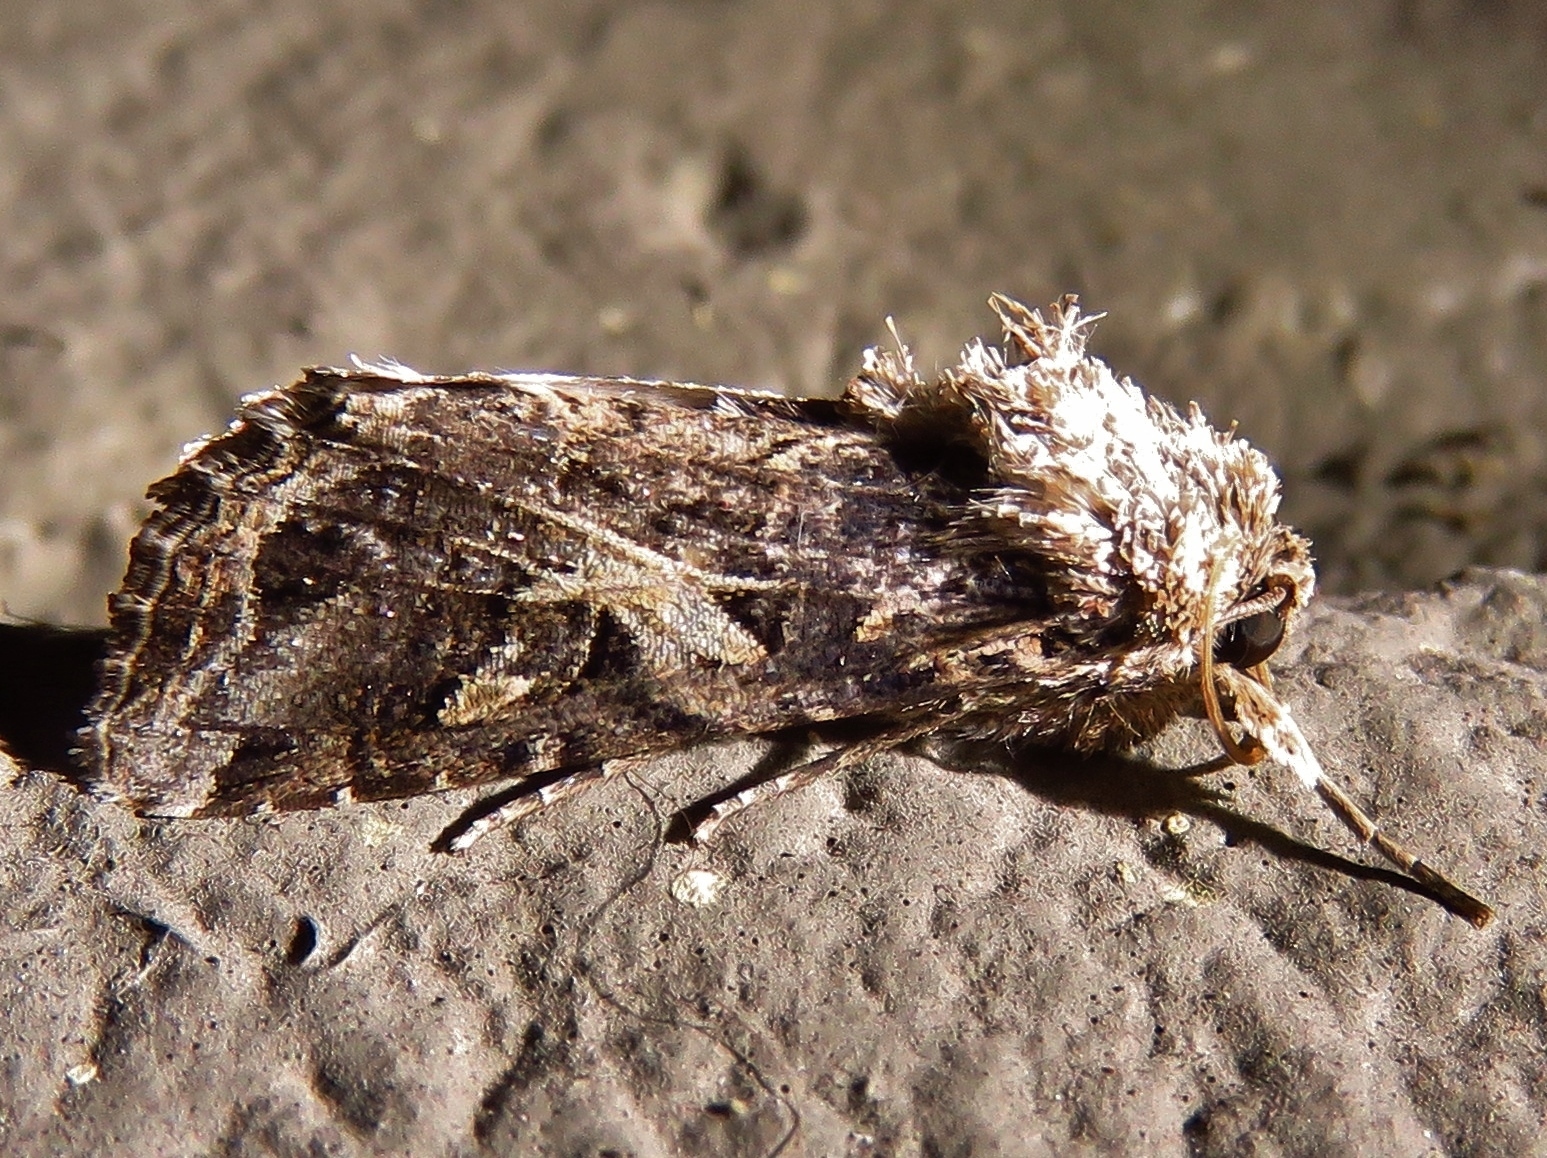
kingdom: Animalia
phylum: Arthropoda
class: Insecta
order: Lepidoptera
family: Noctuidae
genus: Spodoptera
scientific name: Spodoptera ornithogalli
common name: Yellow-striped armyworm
